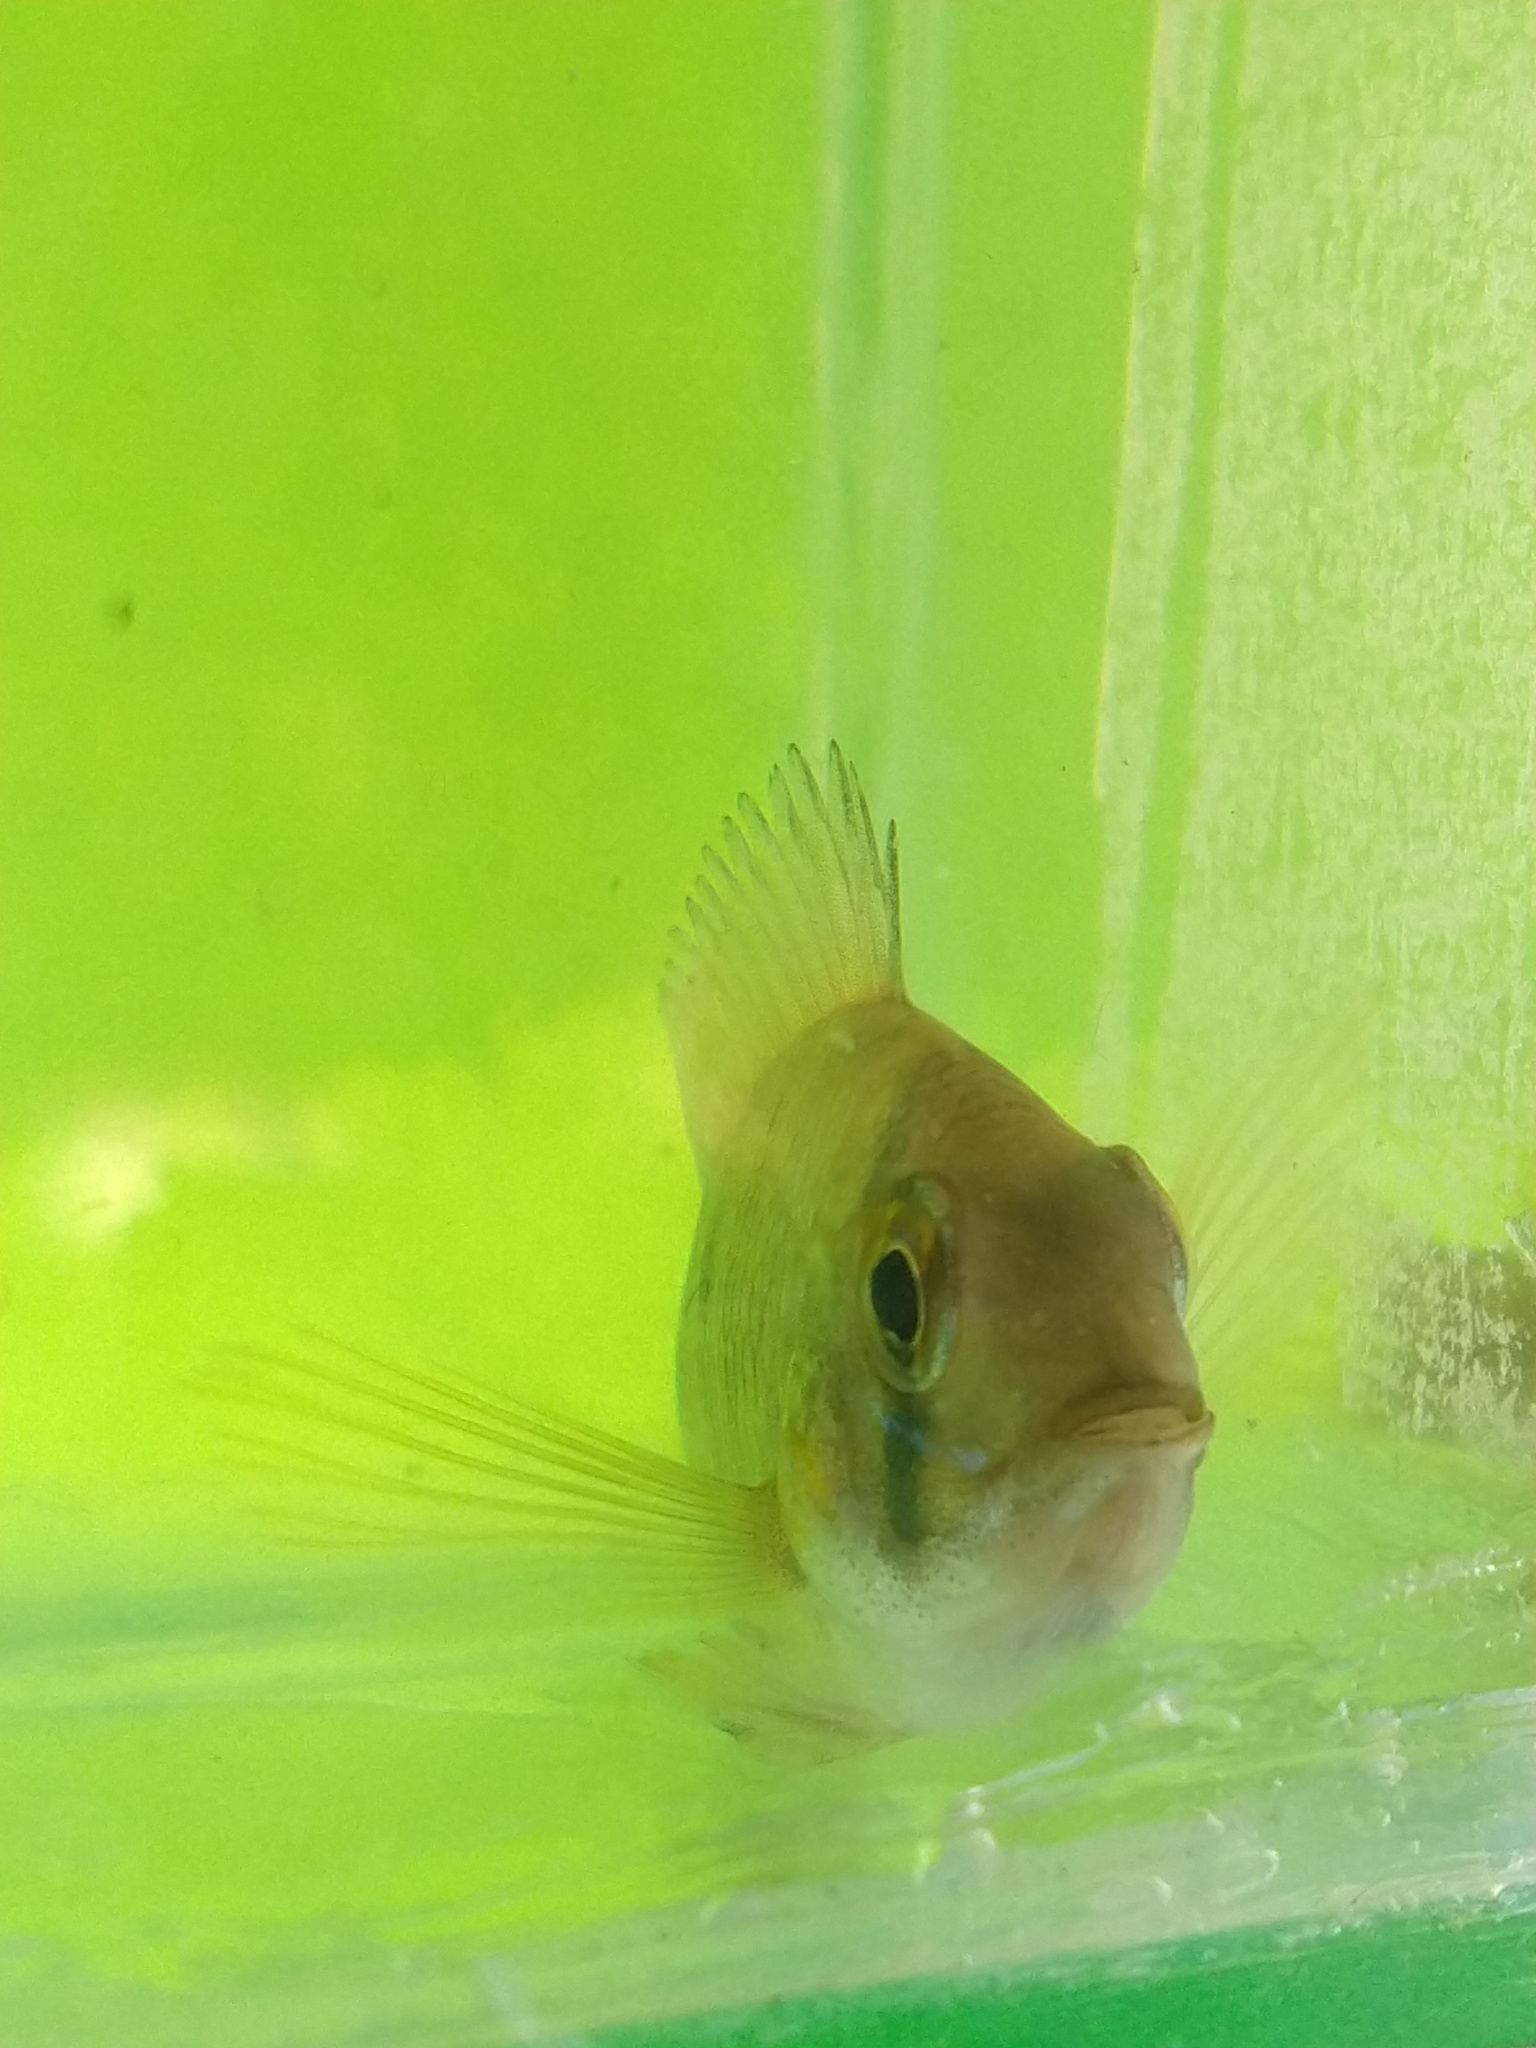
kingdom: Animalia
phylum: Chordata
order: Perciformes
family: Cichlidae
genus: Gymnogeophagus
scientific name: Gymnogeophagus meridionalis
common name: Earth eater
